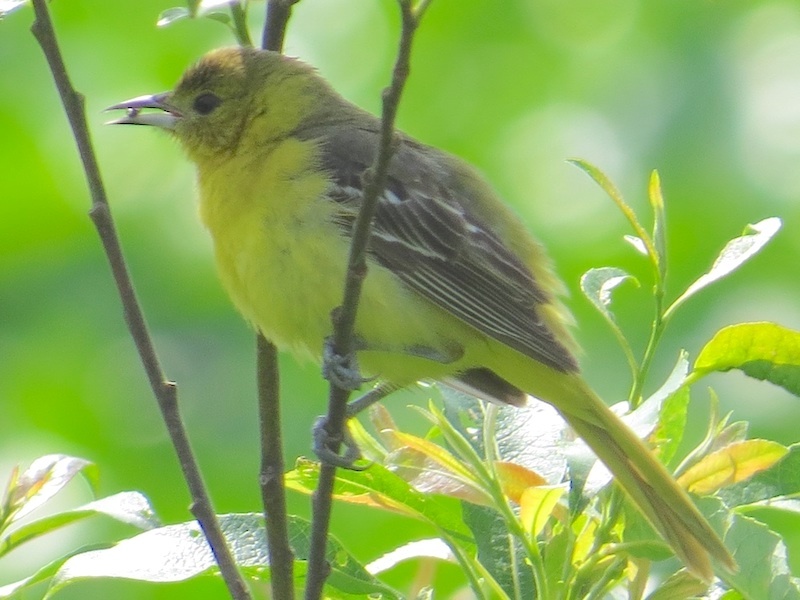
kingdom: Animalia
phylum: Chordata
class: Aves
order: Passeriformes
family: Icteridae
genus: Icterus
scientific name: Icterus spurius
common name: Orchard oriole
